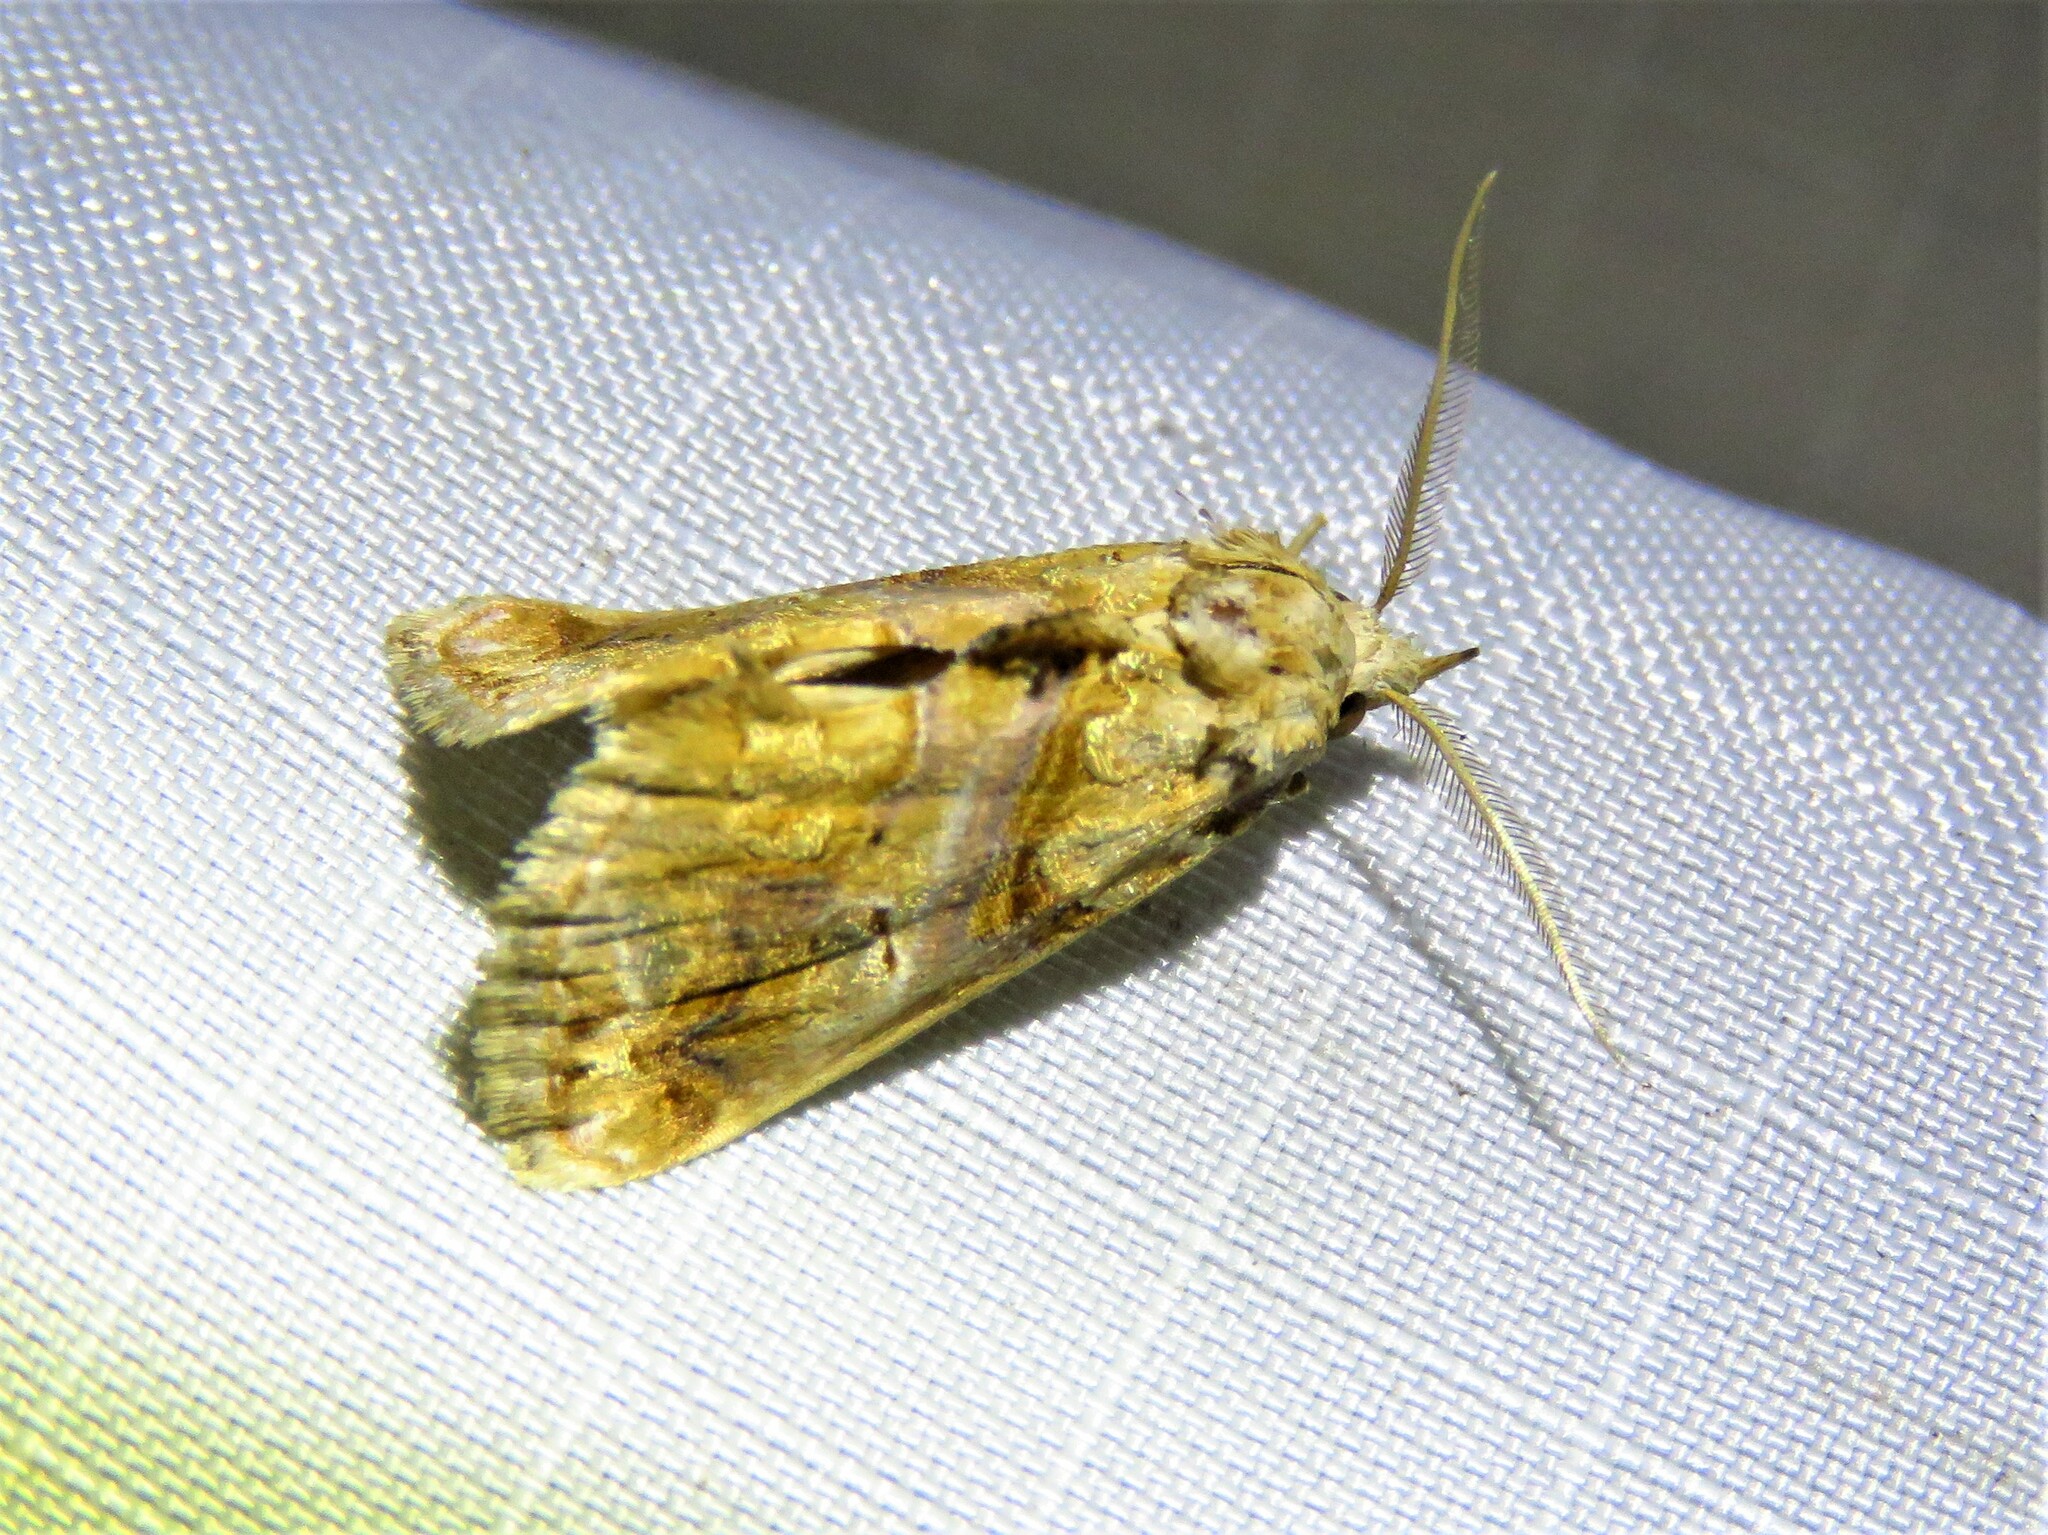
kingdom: Animalia
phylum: Arthropoda
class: Insecta
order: Lepidoptera
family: Erebidae
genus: Plusiodonta
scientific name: Plusiodonta compressipalpis
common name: Moonseed moth
